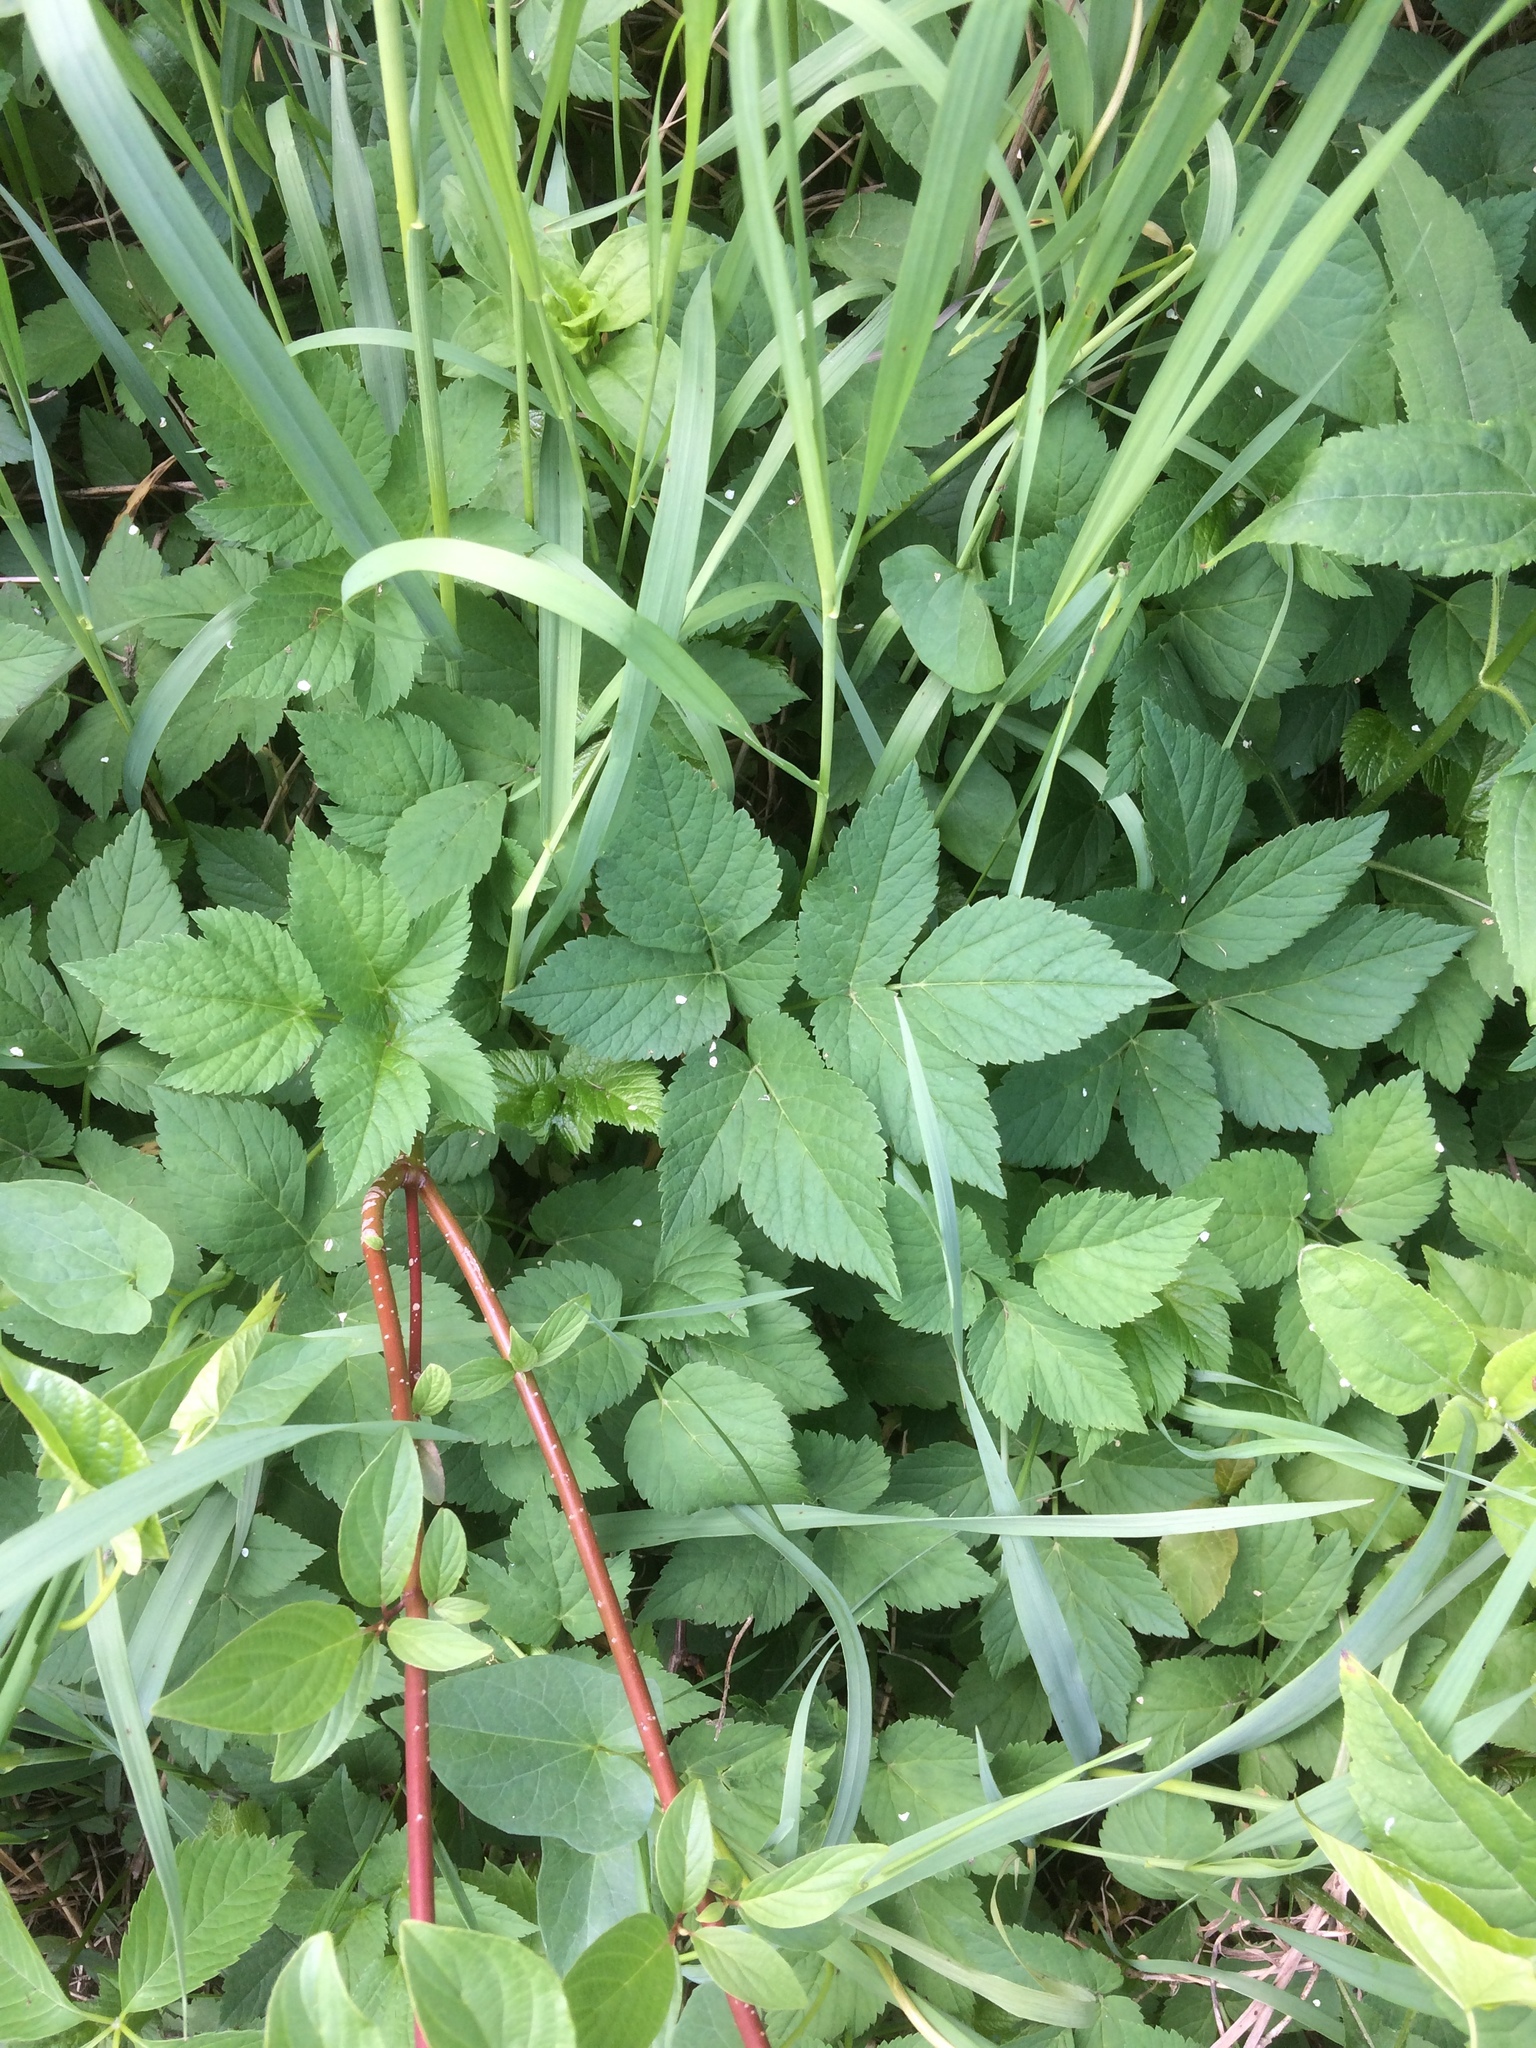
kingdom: Plantae
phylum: Tracheophyta
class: Magnoliopsida
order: Apiales
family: Apiaceae
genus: Aegopodium
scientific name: Aegopodium podagraria
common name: Ground-elder
